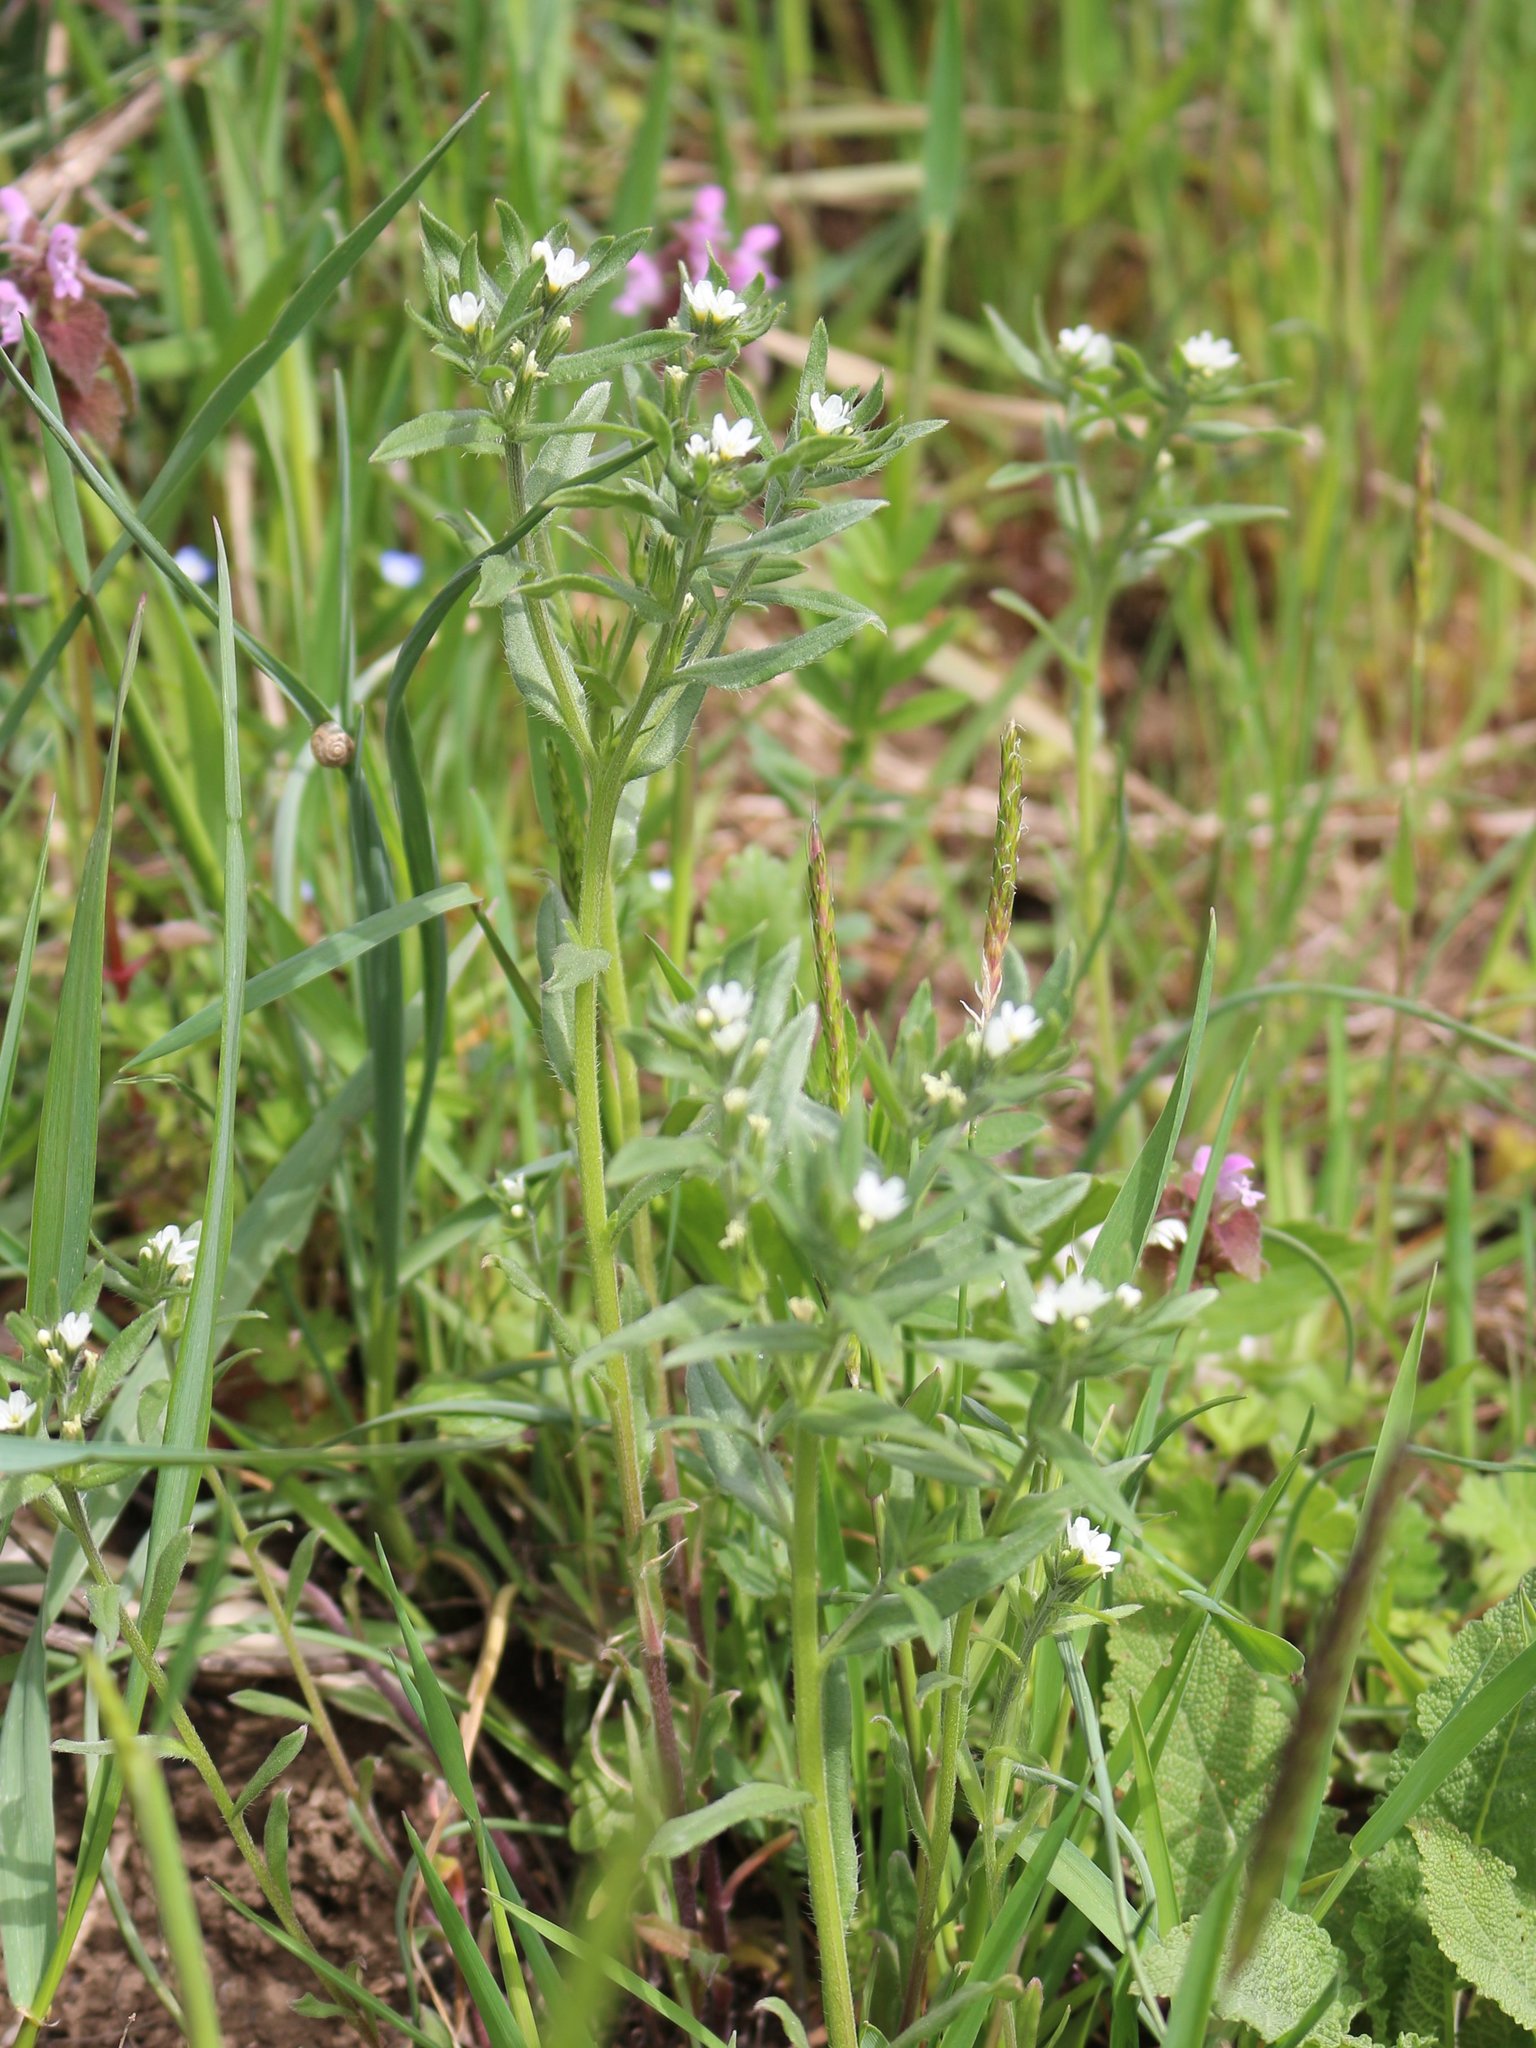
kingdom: Plantae
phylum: Tracheophyta
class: Magnoliopsida
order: Boraginales
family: Boraginaceae
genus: Buglossoides
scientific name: Buglossoides arvensis
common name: Corn gromwell
